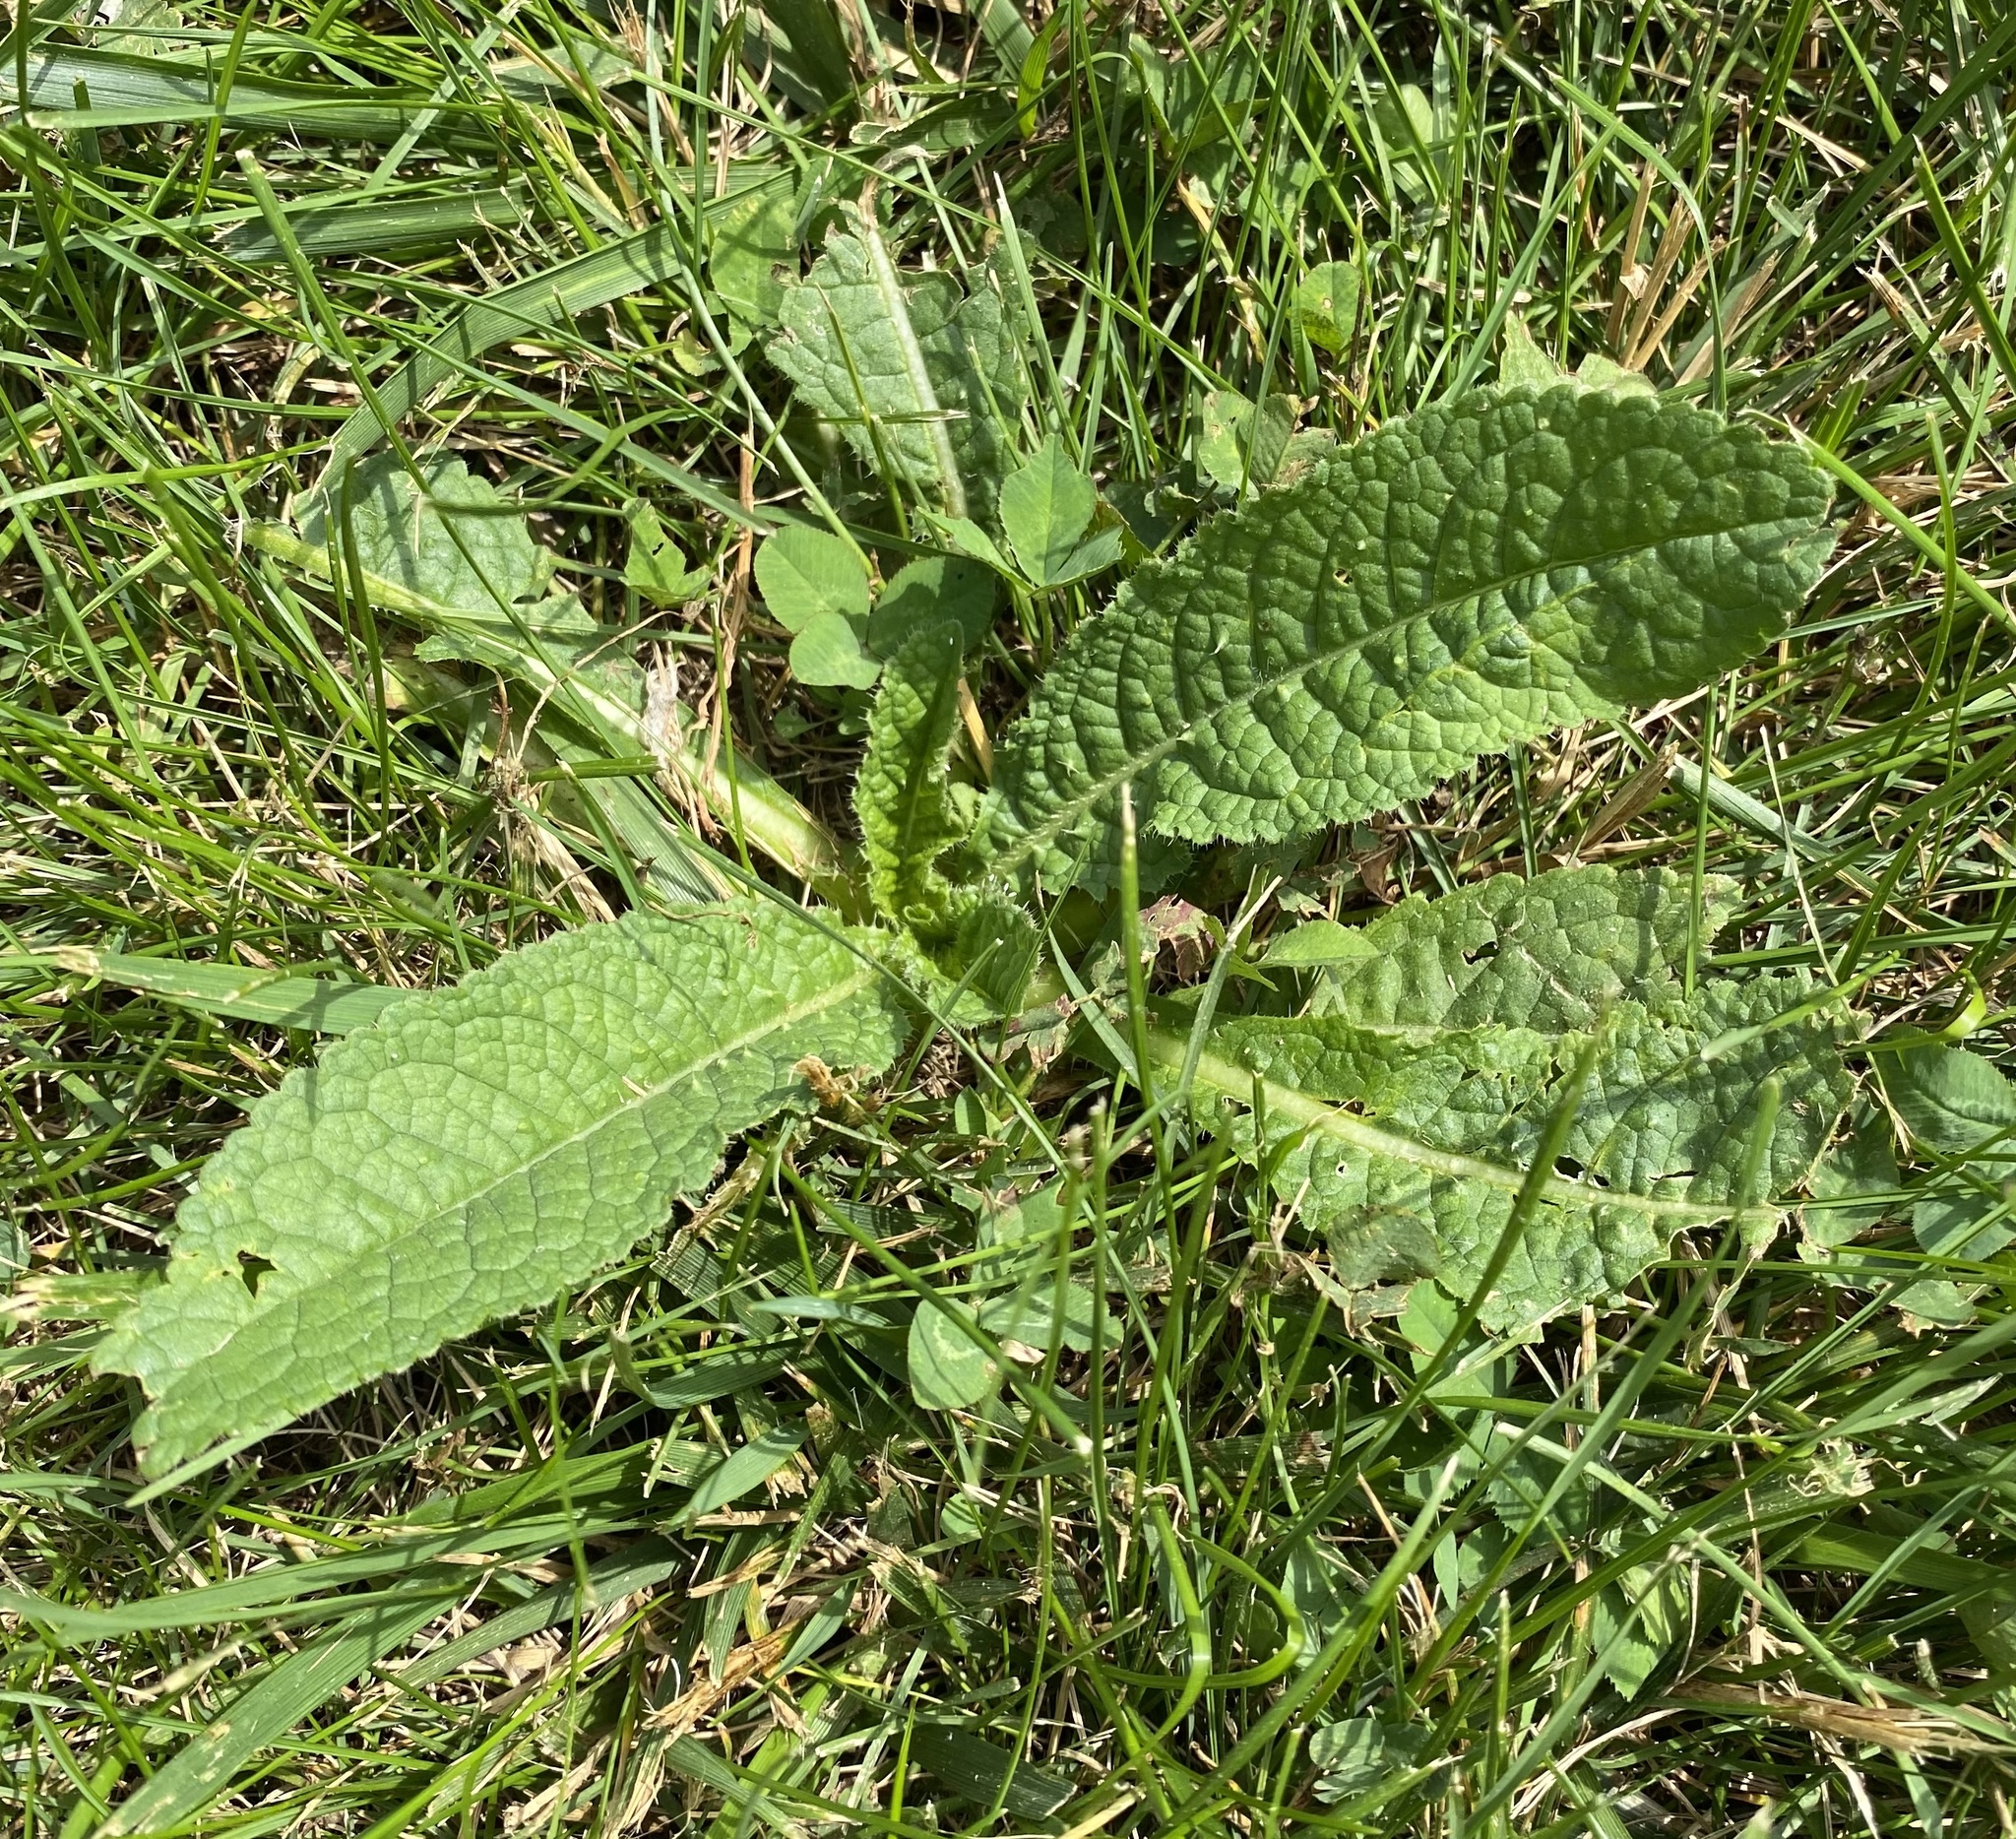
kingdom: Plantae
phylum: Tracheophyta
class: Magnoliopsida
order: Dipsacales
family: Caprifoliaceae
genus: Dipsacus
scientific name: Dipsacus fullonum
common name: Teasel
